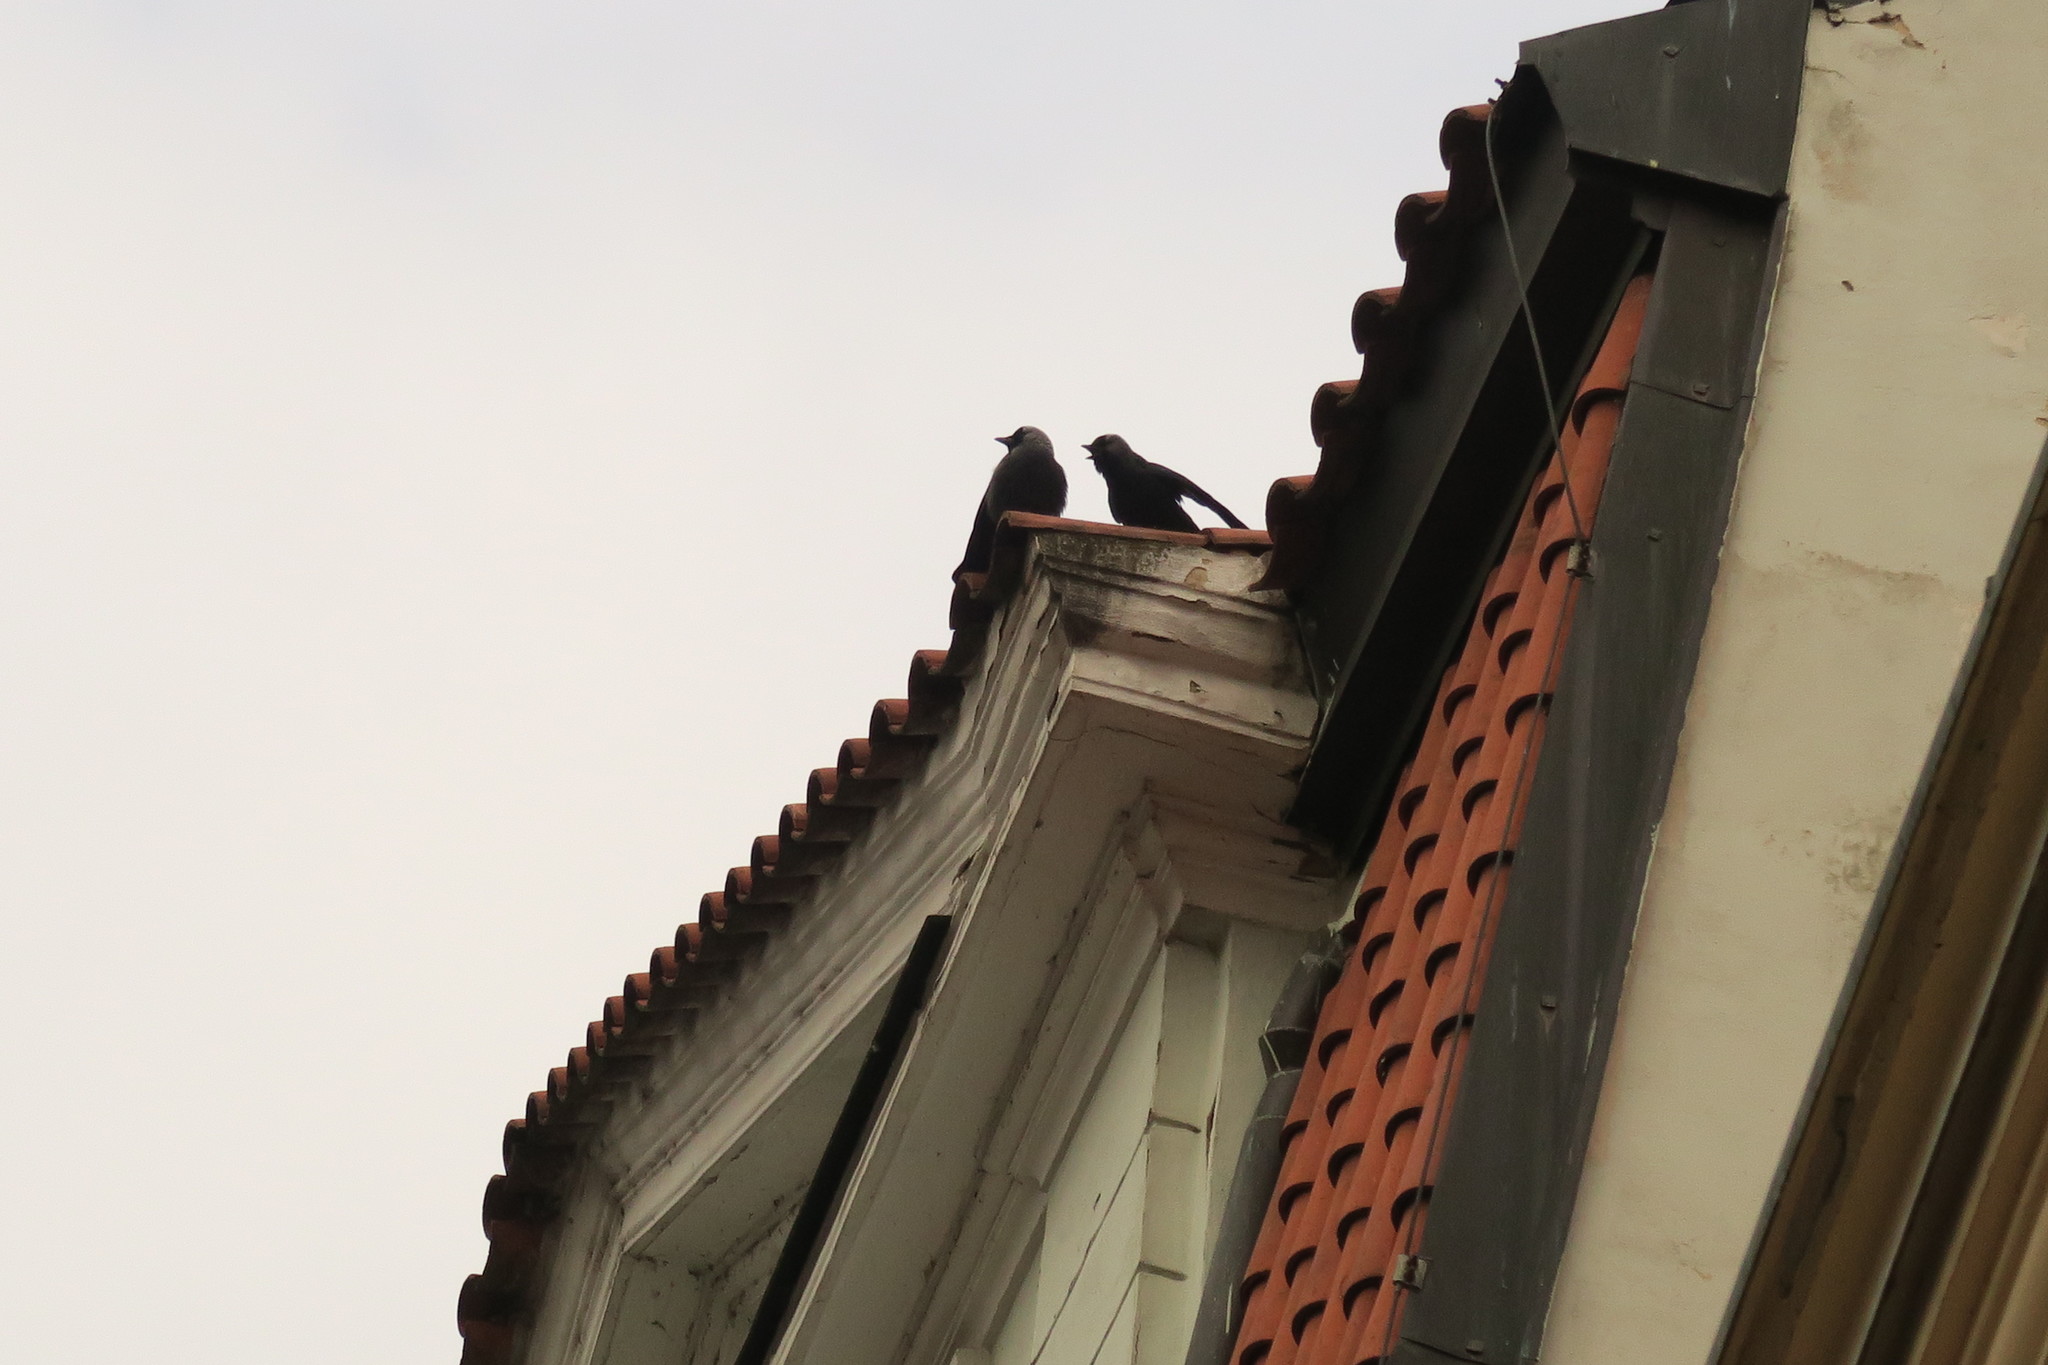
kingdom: Animalia
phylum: Chordata
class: Aves
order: Passeriformes
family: Corvidae
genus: Coloeus
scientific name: Coloeus monedula
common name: Western jackdaw
